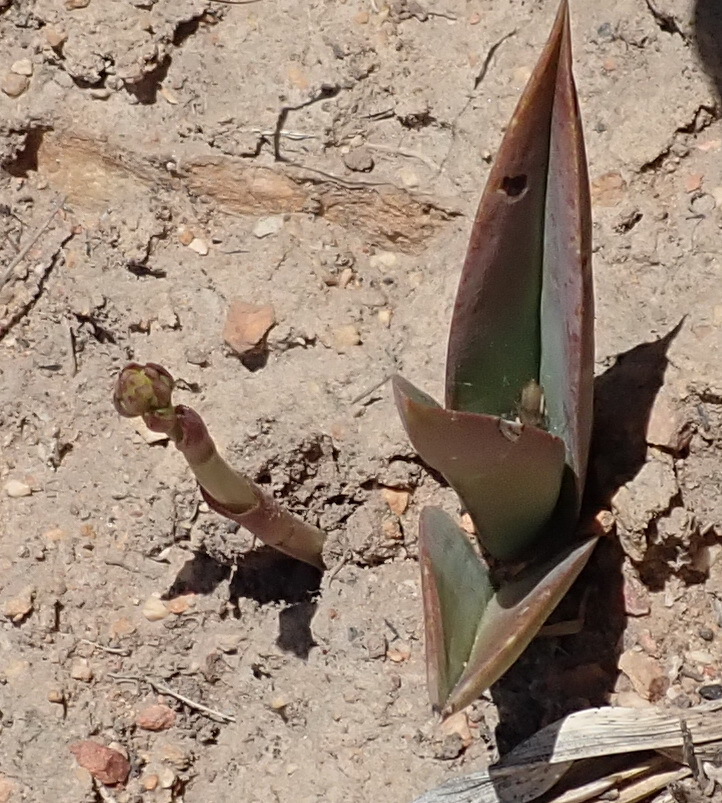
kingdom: Plantae
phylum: Tracheophyta
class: Liliopsida
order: Asparagales
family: Orchidaceae
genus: Eulophia
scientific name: Eulophia tuberculata
